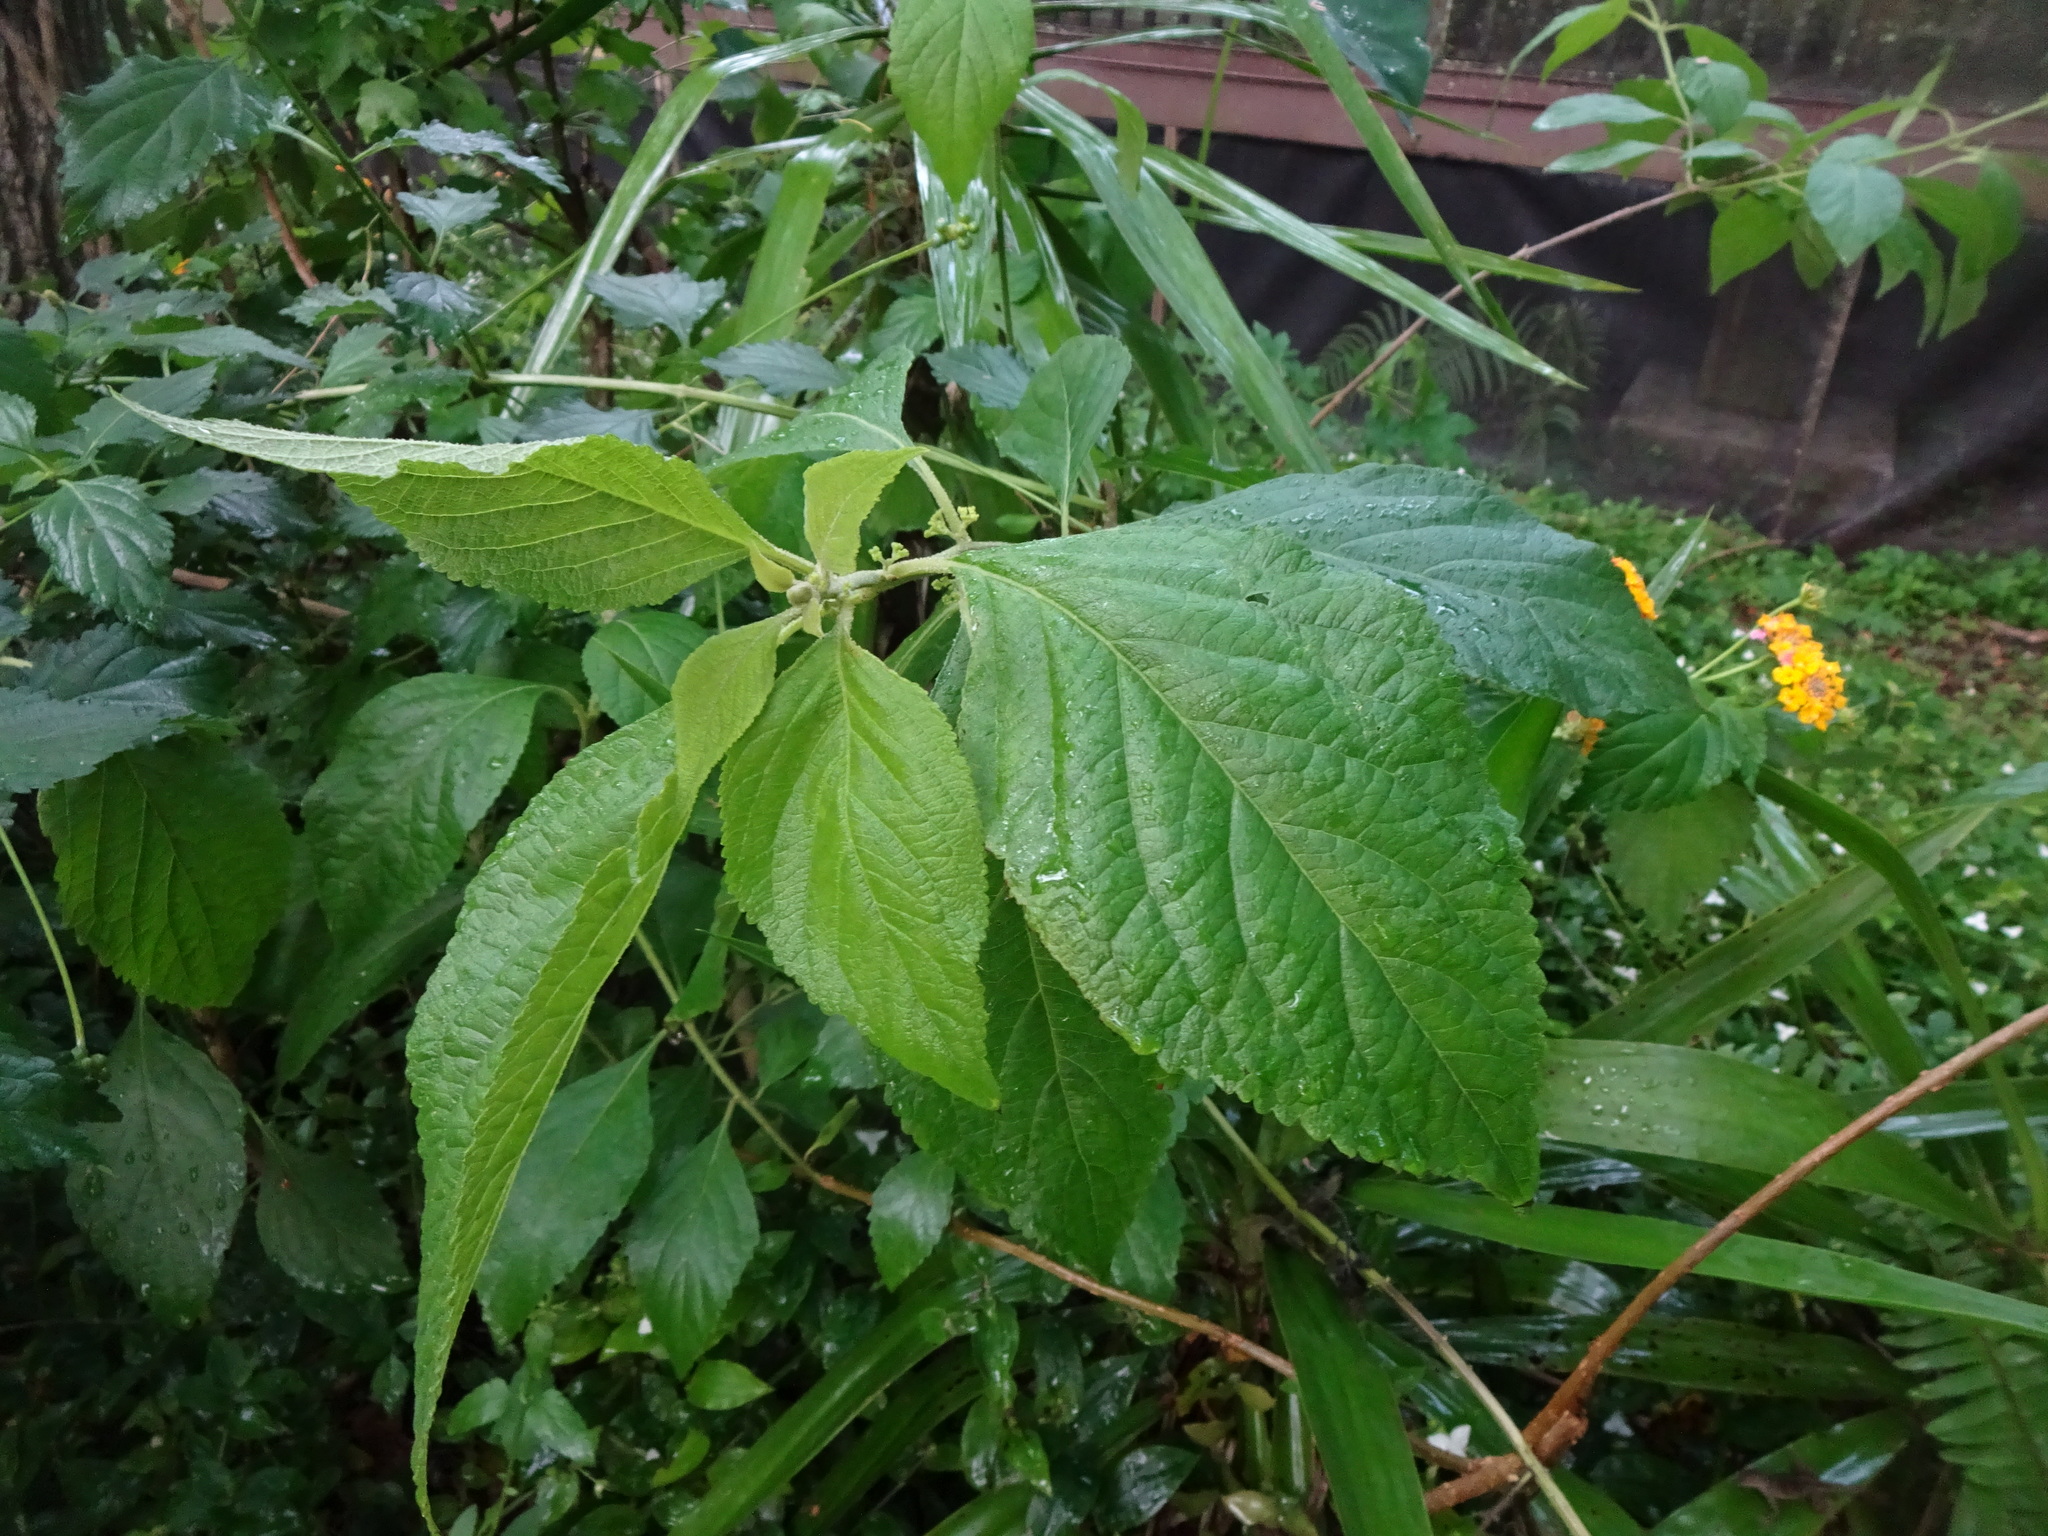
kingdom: Plantae
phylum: Tracheophyta
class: Magnoliopsida
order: Lamiales
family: Lamiaceae
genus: Callicarpa
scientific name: Callicarpa americana
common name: American beautyberry
